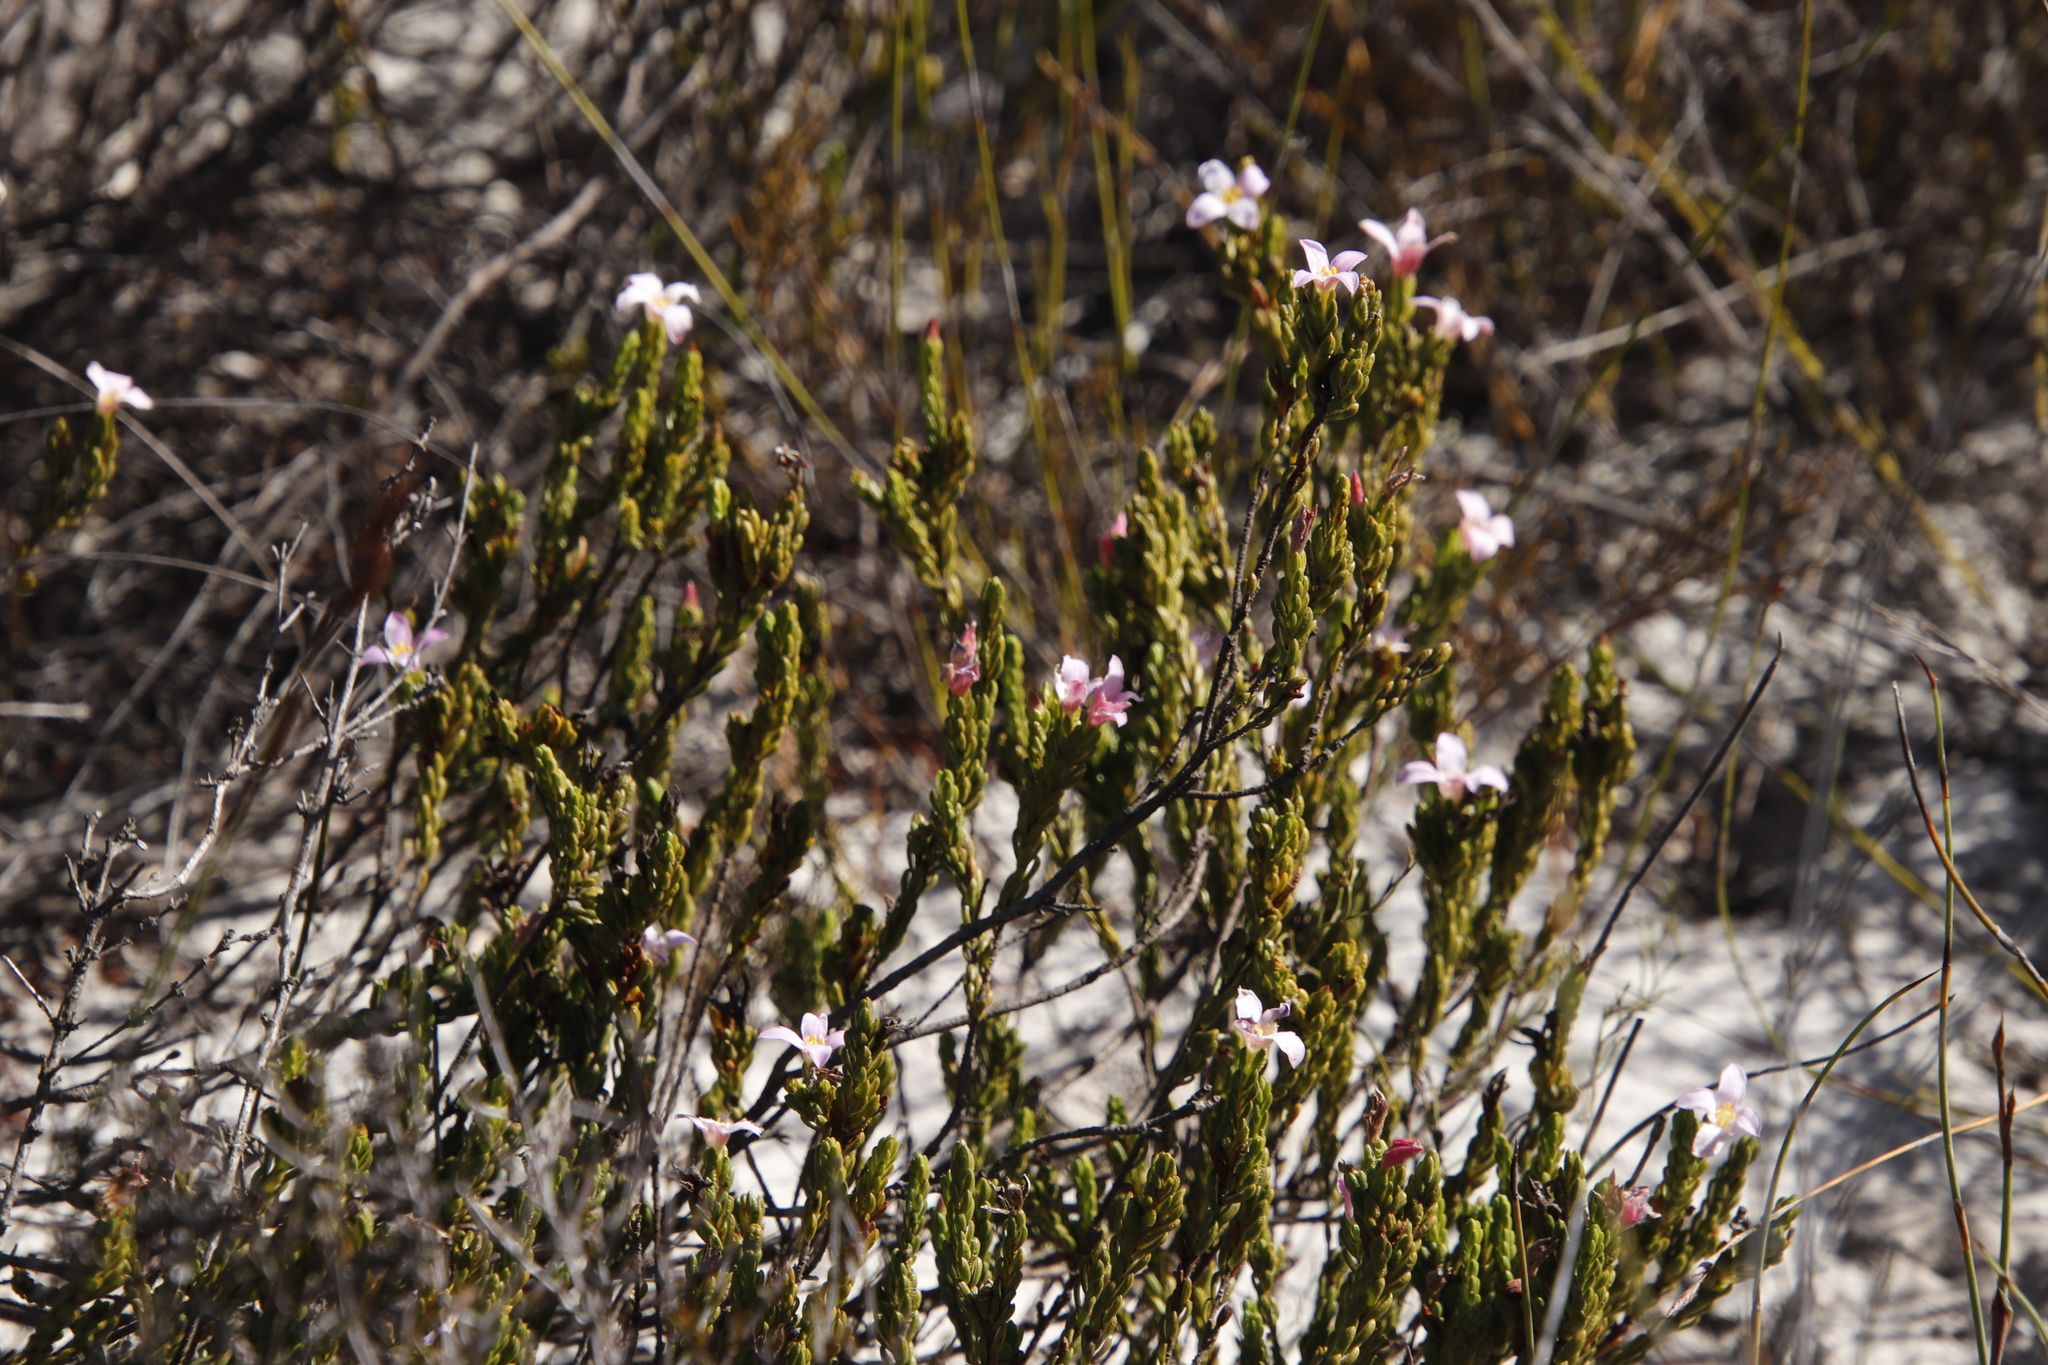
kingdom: Plantae
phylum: Tracheophyta
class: Magnoliopsida
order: Malvales
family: Thymelaeaceae
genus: Lachnaea
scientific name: Lachnaea grandiflora
